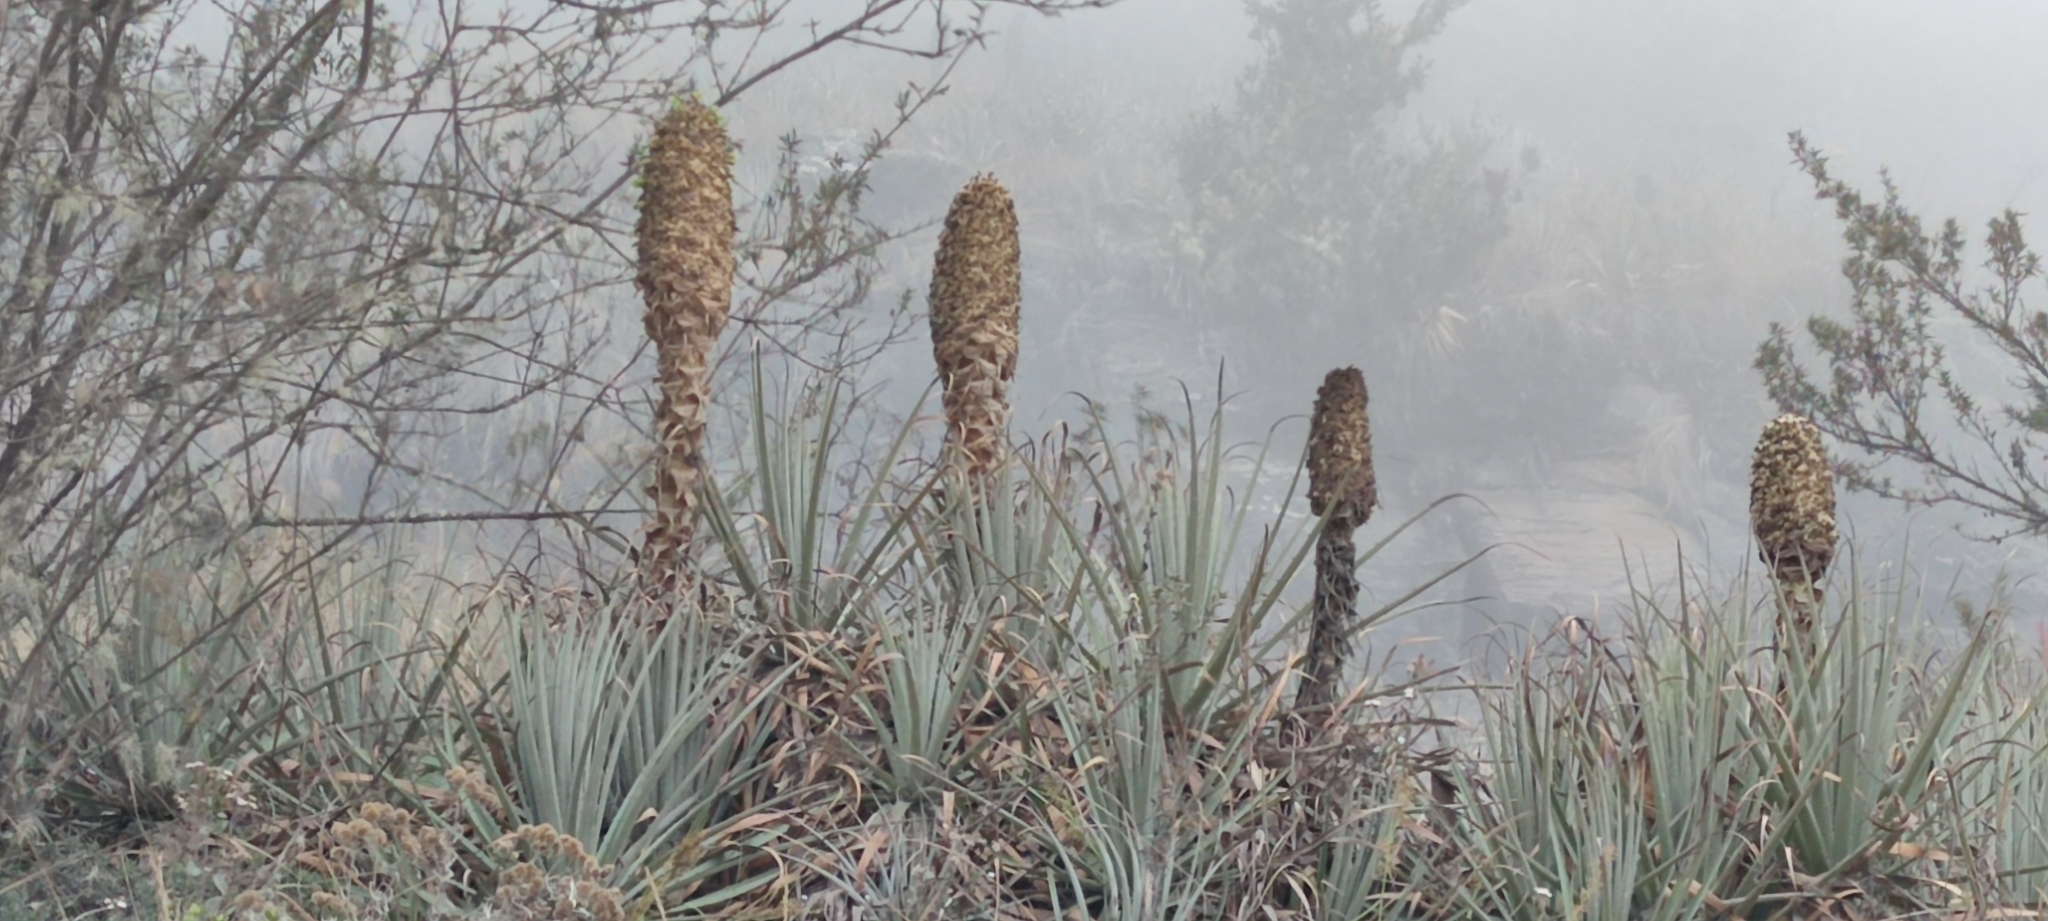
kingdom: Plantae
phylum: Tracheophyta
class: Liliopsida
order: Poales
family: Bromeliaceae
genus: Puya
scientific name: Puya membranacea
